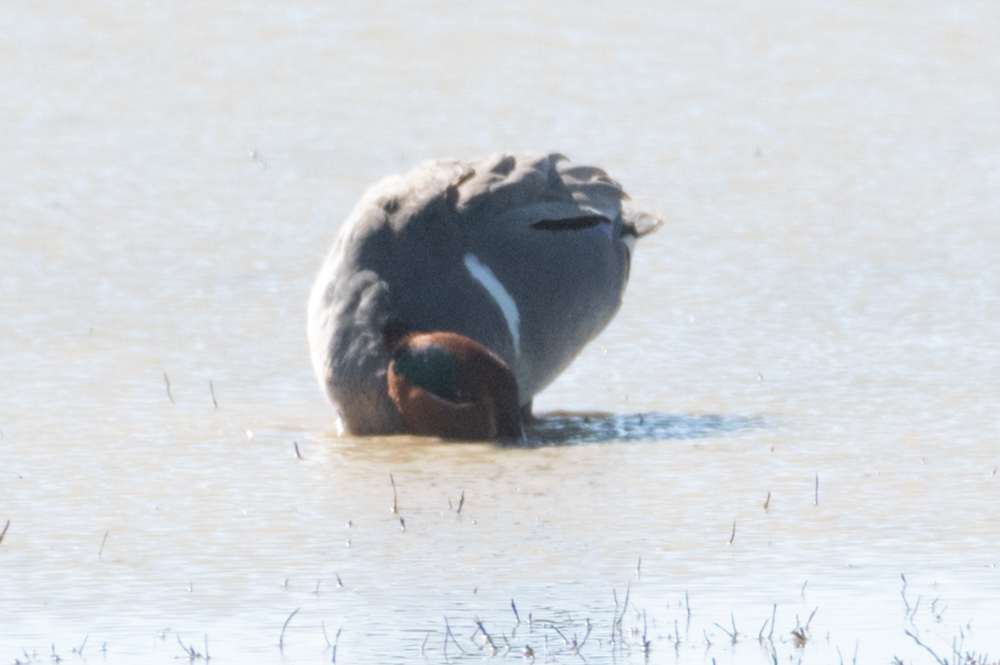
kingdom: Animalia
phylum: Chordata
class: Aves
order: Anseriformes
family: Anatidae
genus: Anas
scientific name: Anas crecca
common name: Eurasian teal
